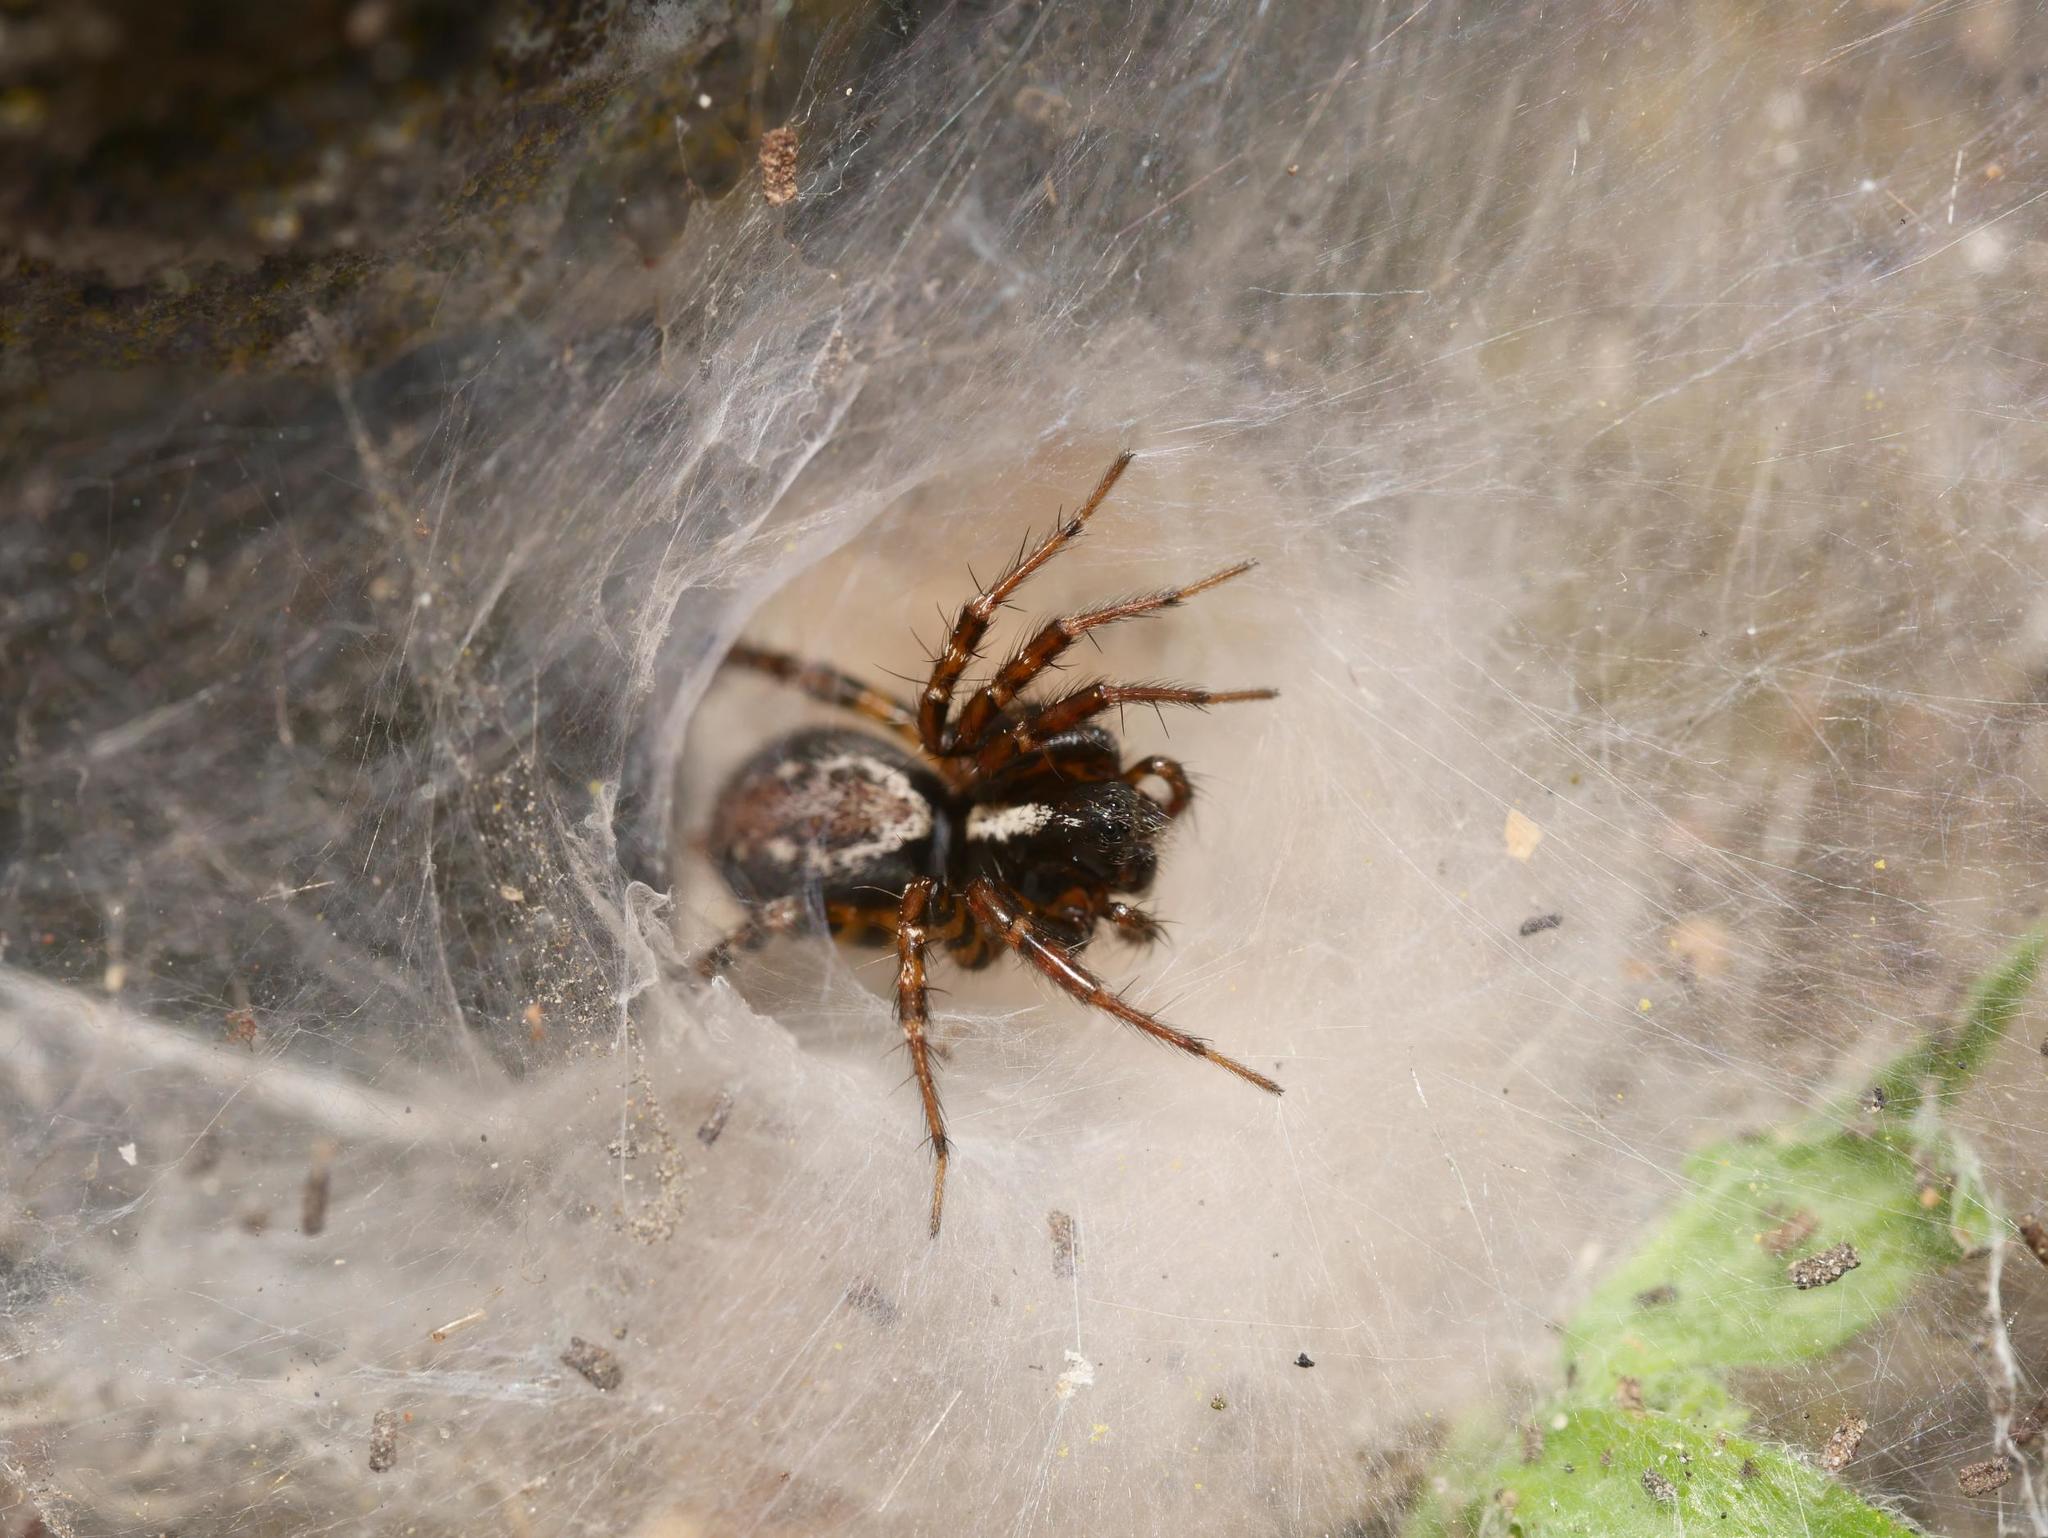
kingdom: Animalia
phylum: Arthropoda
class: Arachnida
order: Araneae
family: Agelenidae
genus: Textrix
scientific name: Textrix denticulata
